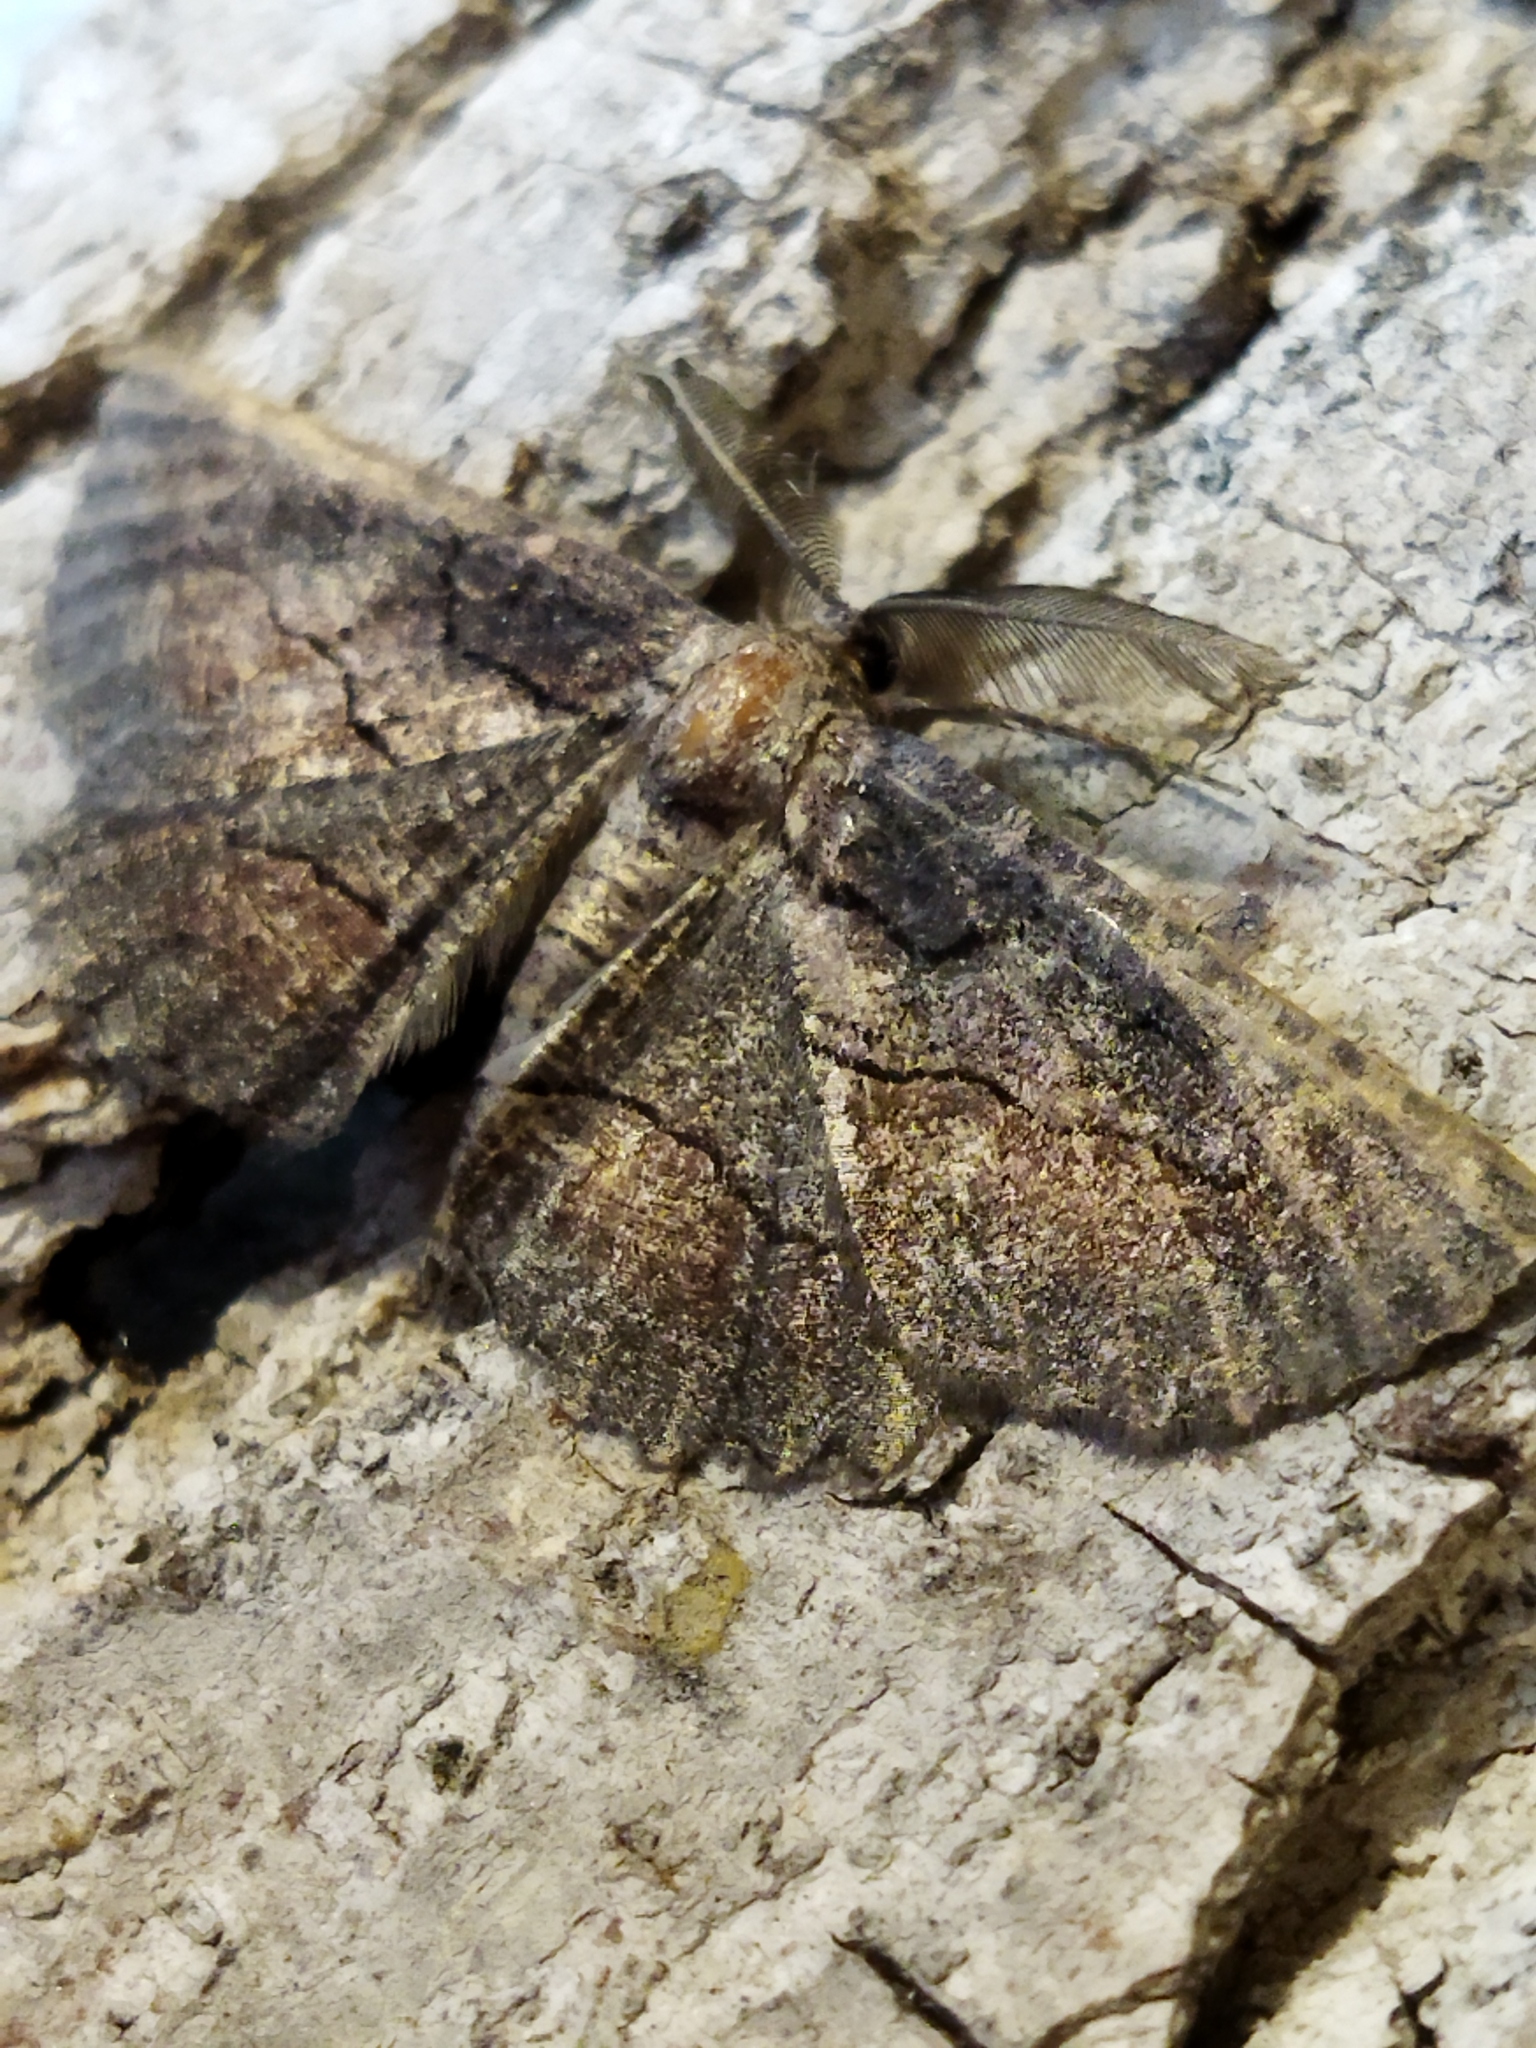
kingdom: Animalia
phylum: Arthropoda
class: Insecta
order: Lepidoptera
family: Geometridae
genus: Nychiodes
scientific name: Nychiodes waltheri
